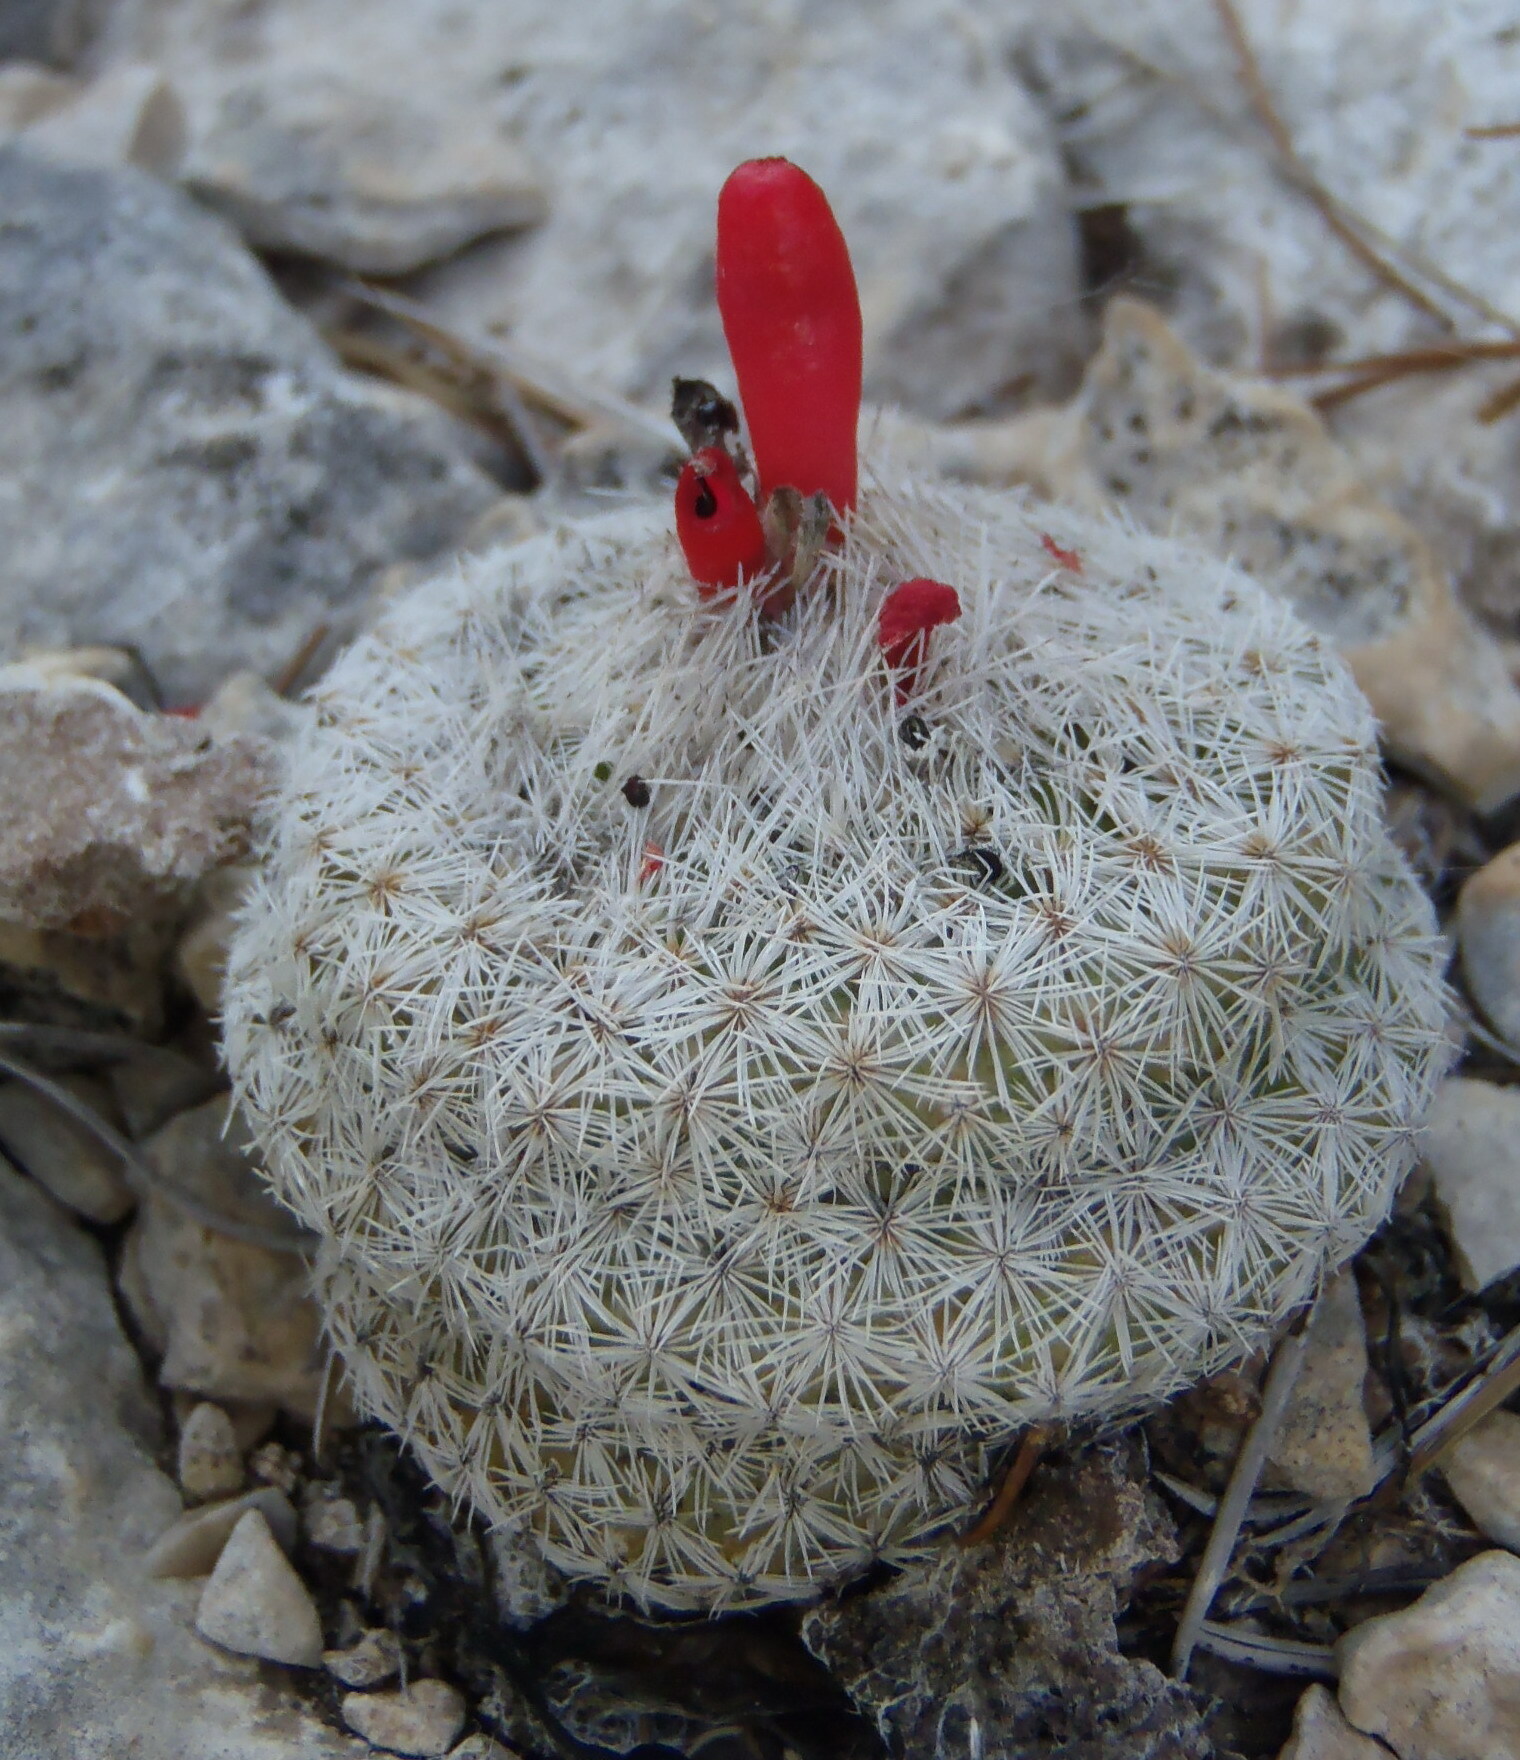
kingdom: Plantae
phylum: Tracheophyta
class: Magnoliopsida
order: Caryophyllales
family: Cactaceae
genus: Epithelantha
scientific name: Epithelantha micromeris
